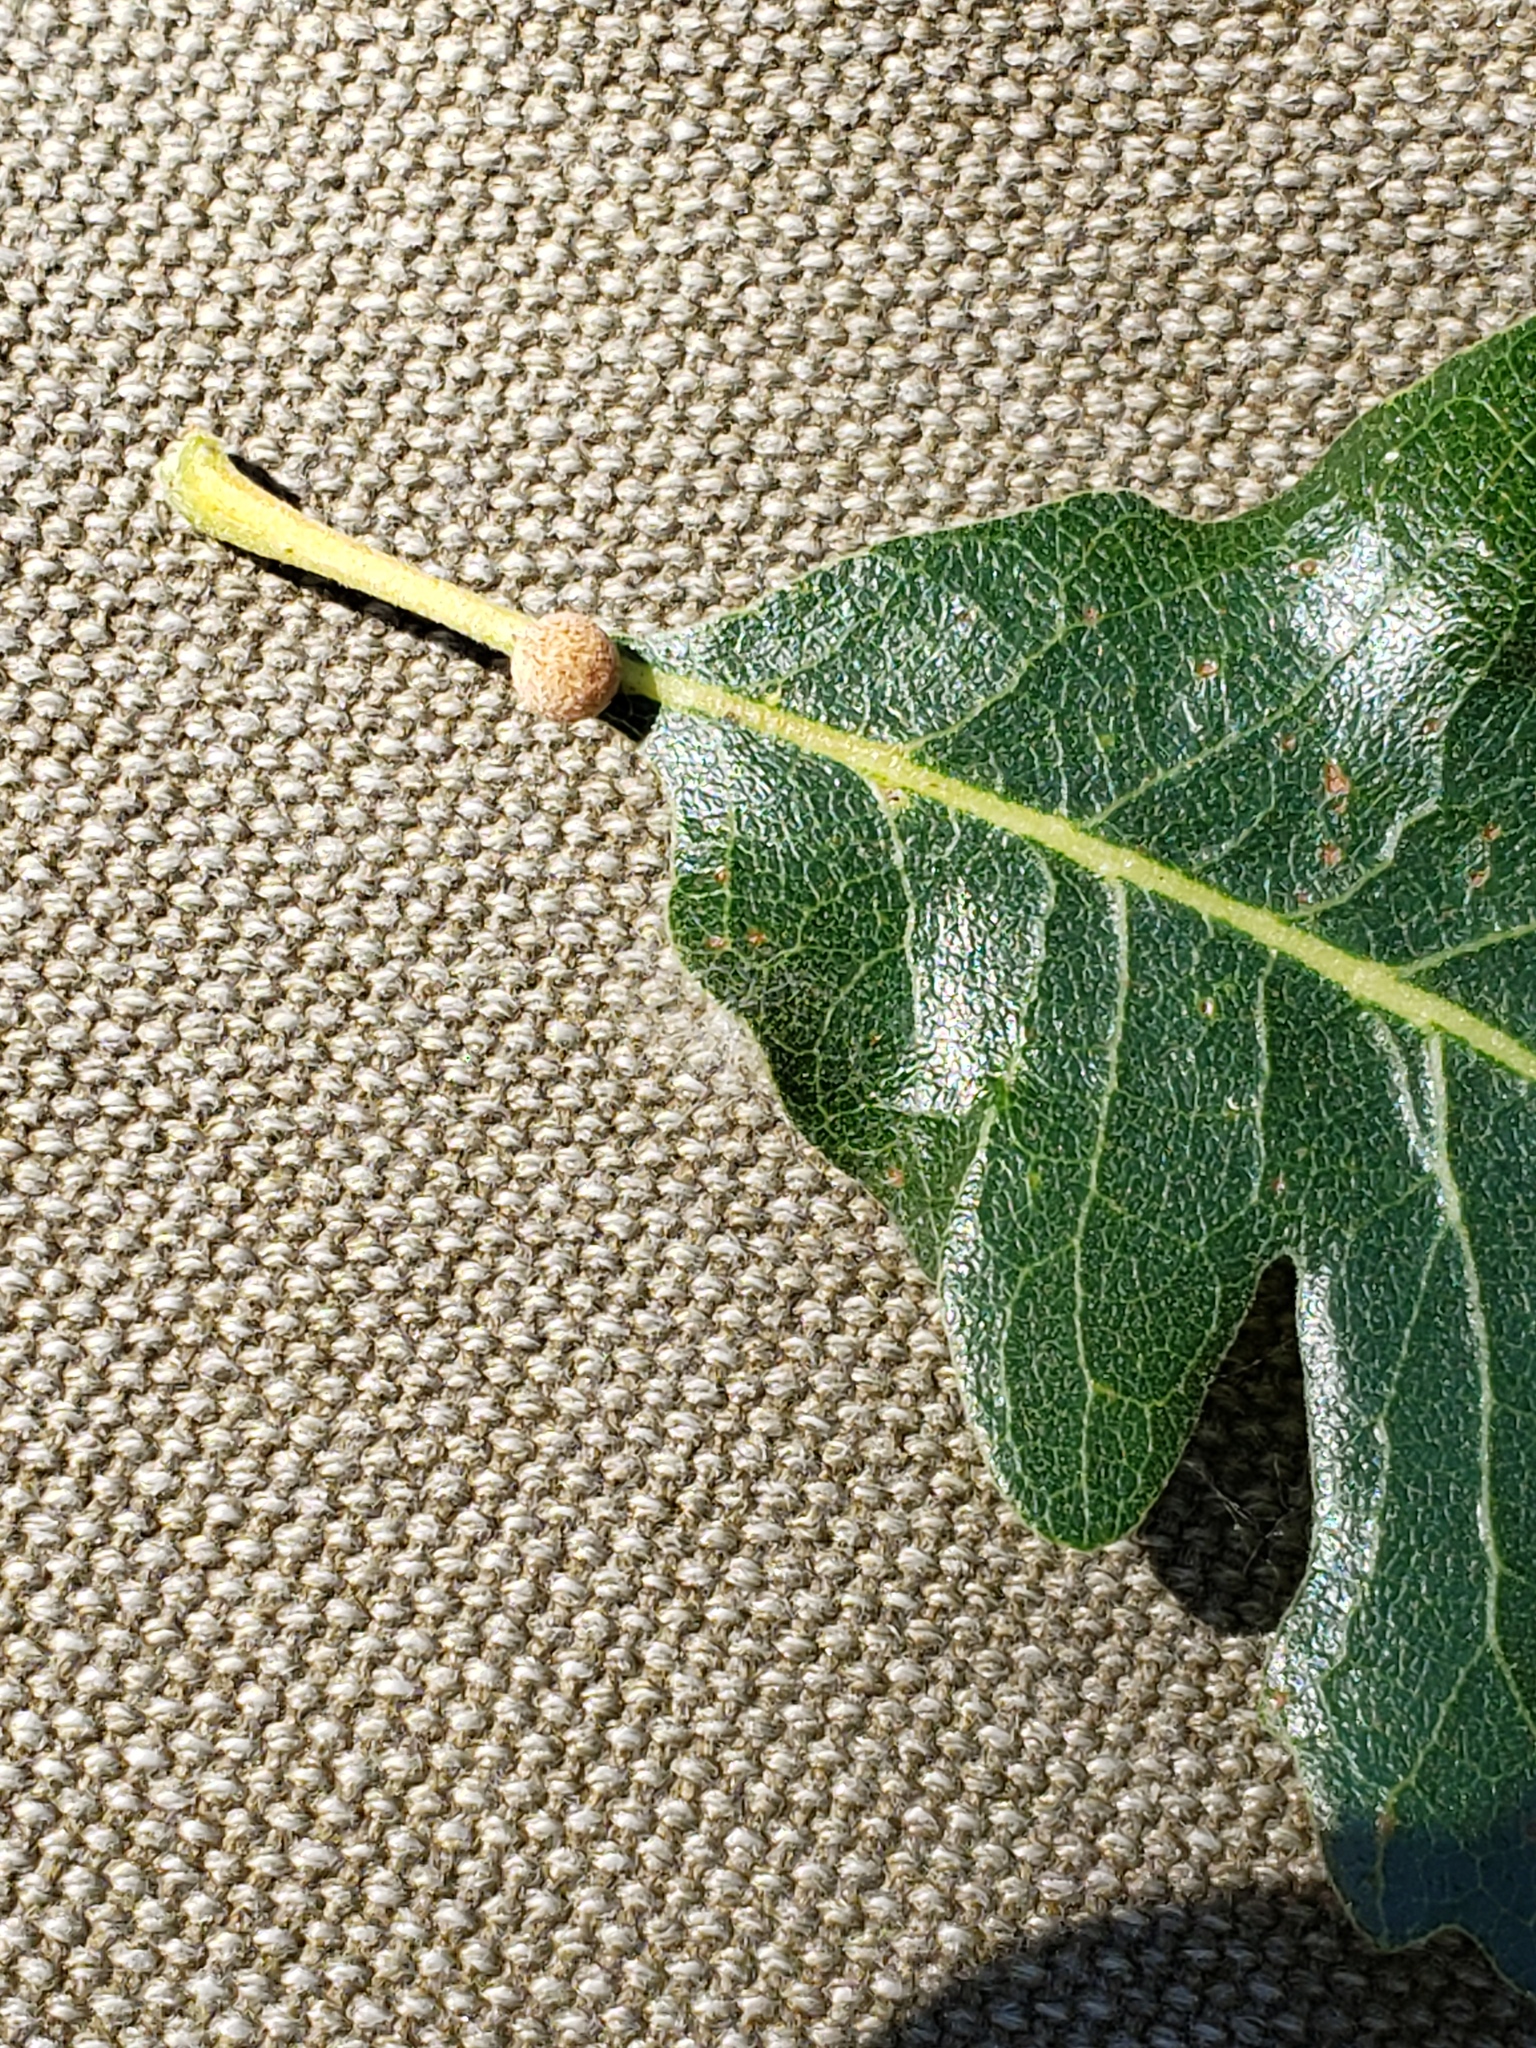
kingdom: Animalia
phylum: Arthropoda
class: Insecta
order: Hymenoptera
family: Cynipidae
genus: Cynips
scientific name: Cynips conspicua
